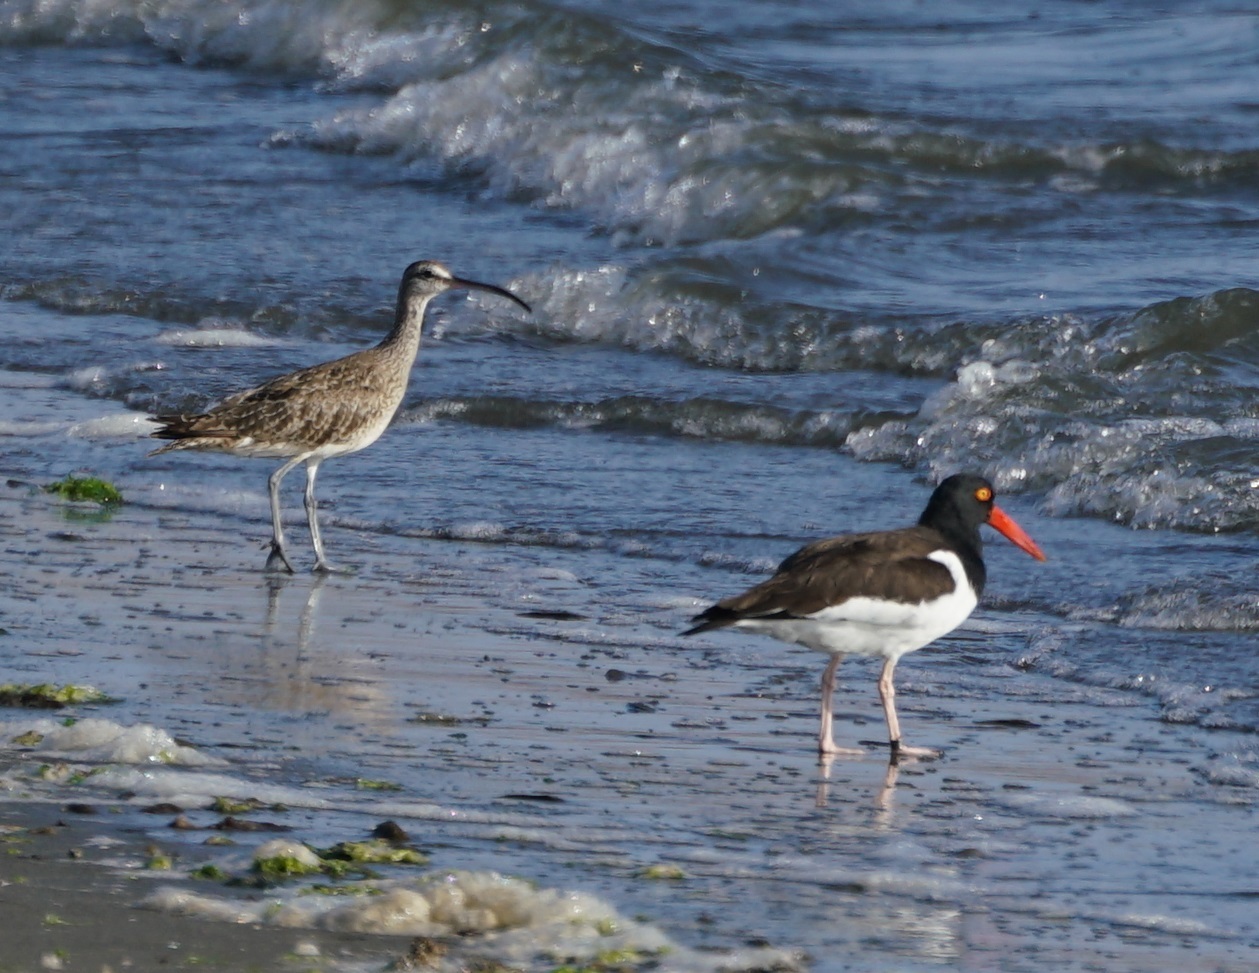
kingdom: Animalia
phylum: Chordata
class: Aves
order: Charadriiformes
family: Scolopacidae
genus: Numenius
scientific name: Numenius phaeopus
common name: Whimbrel
